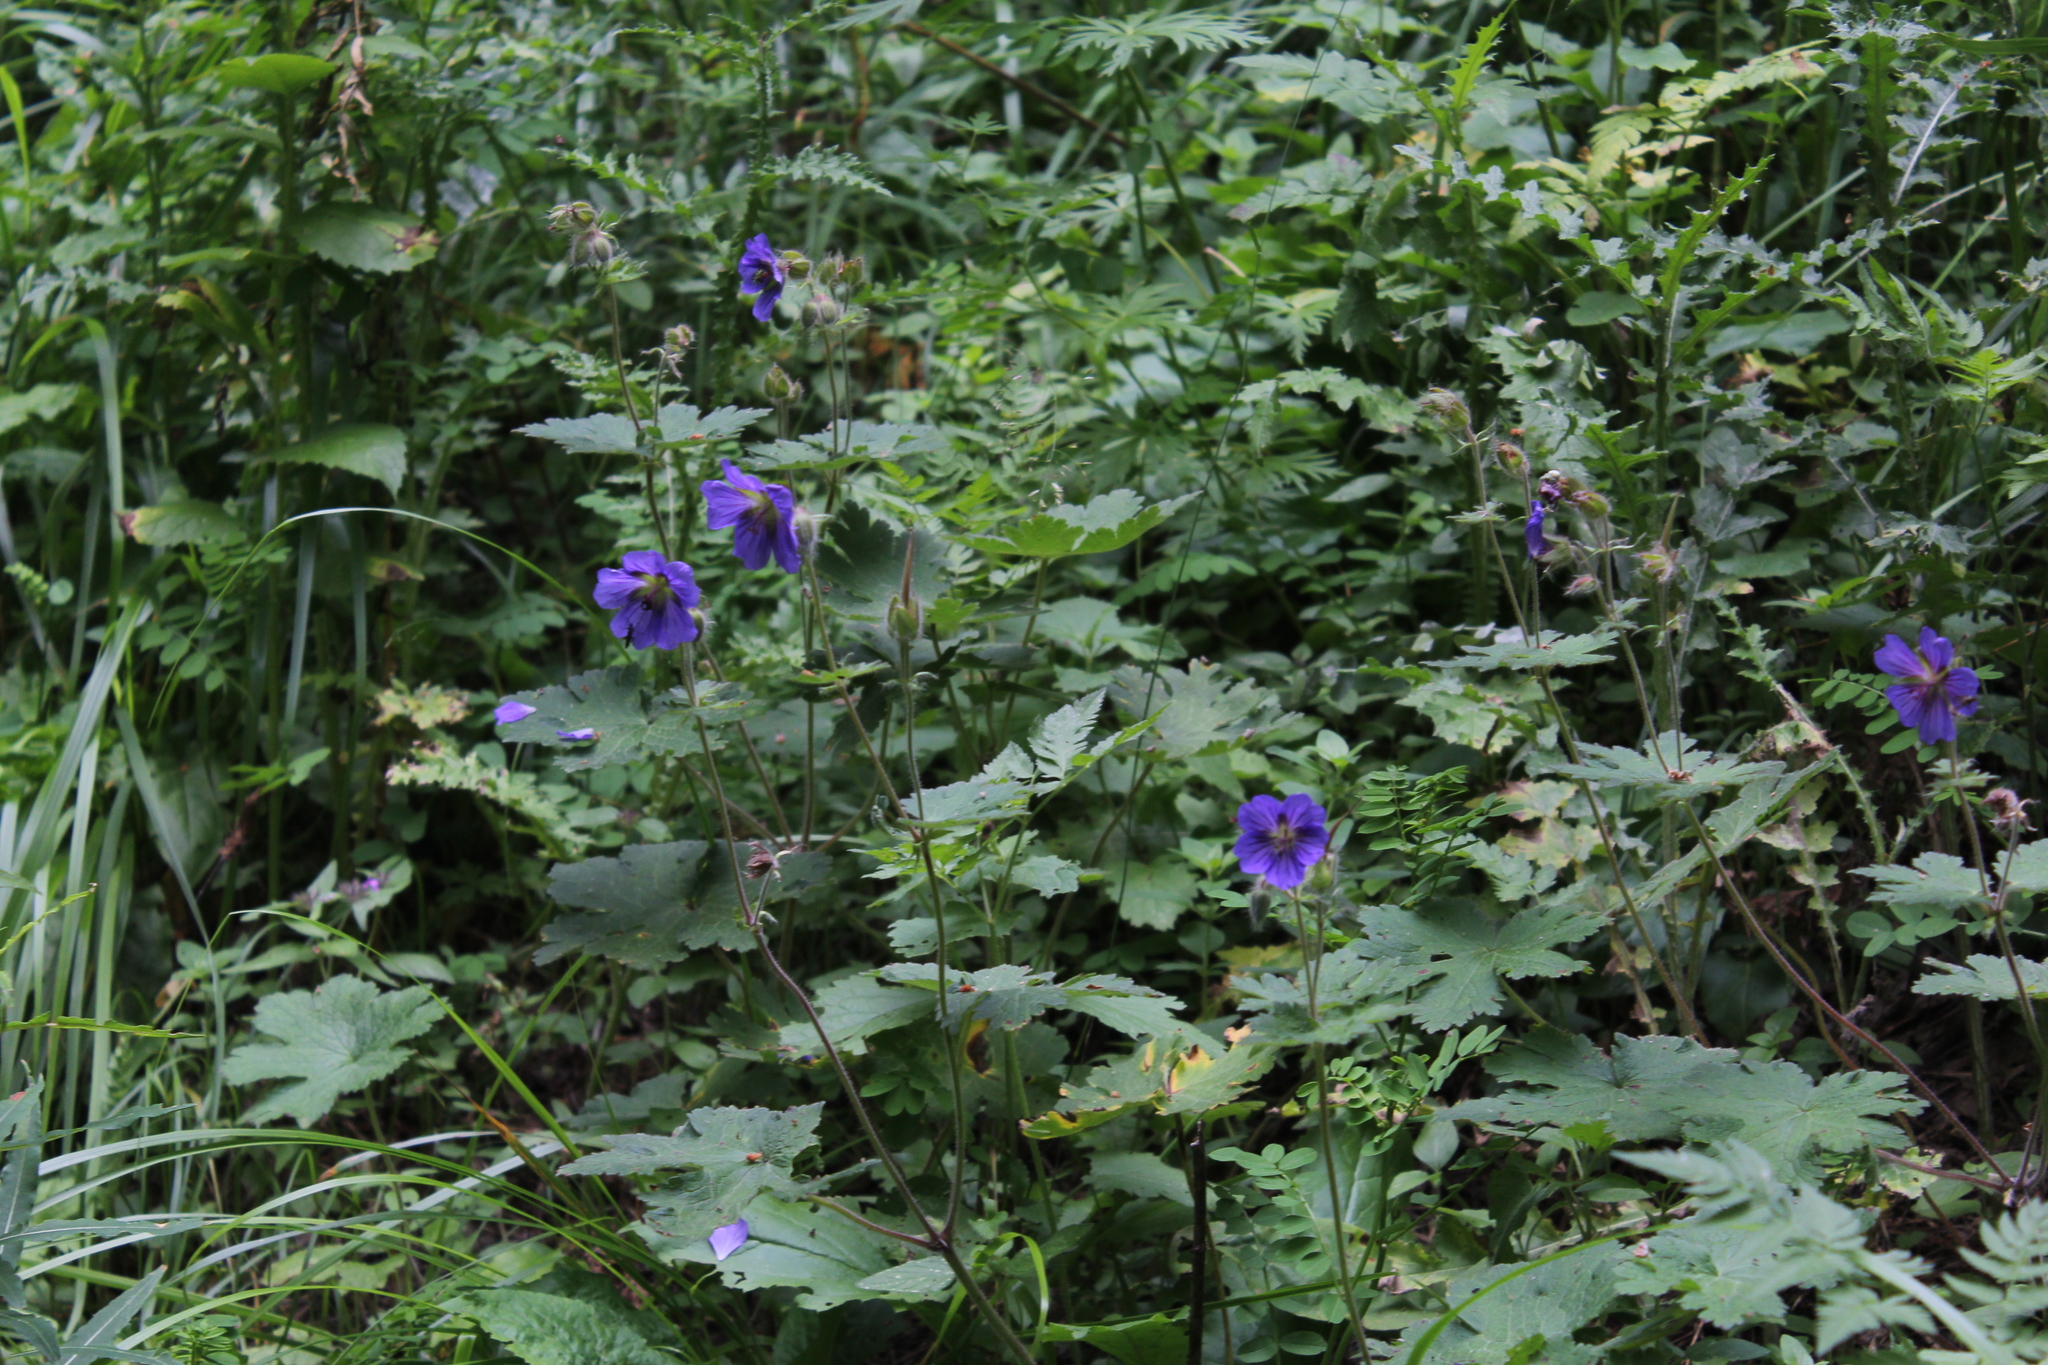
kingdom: Plantae
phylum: Tracheophyta
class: Magnoliopsida
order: Geraniales
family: Geraniaceae
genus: Geranium
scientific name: Geranium platypetalum
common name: Glandular crane's-bill
